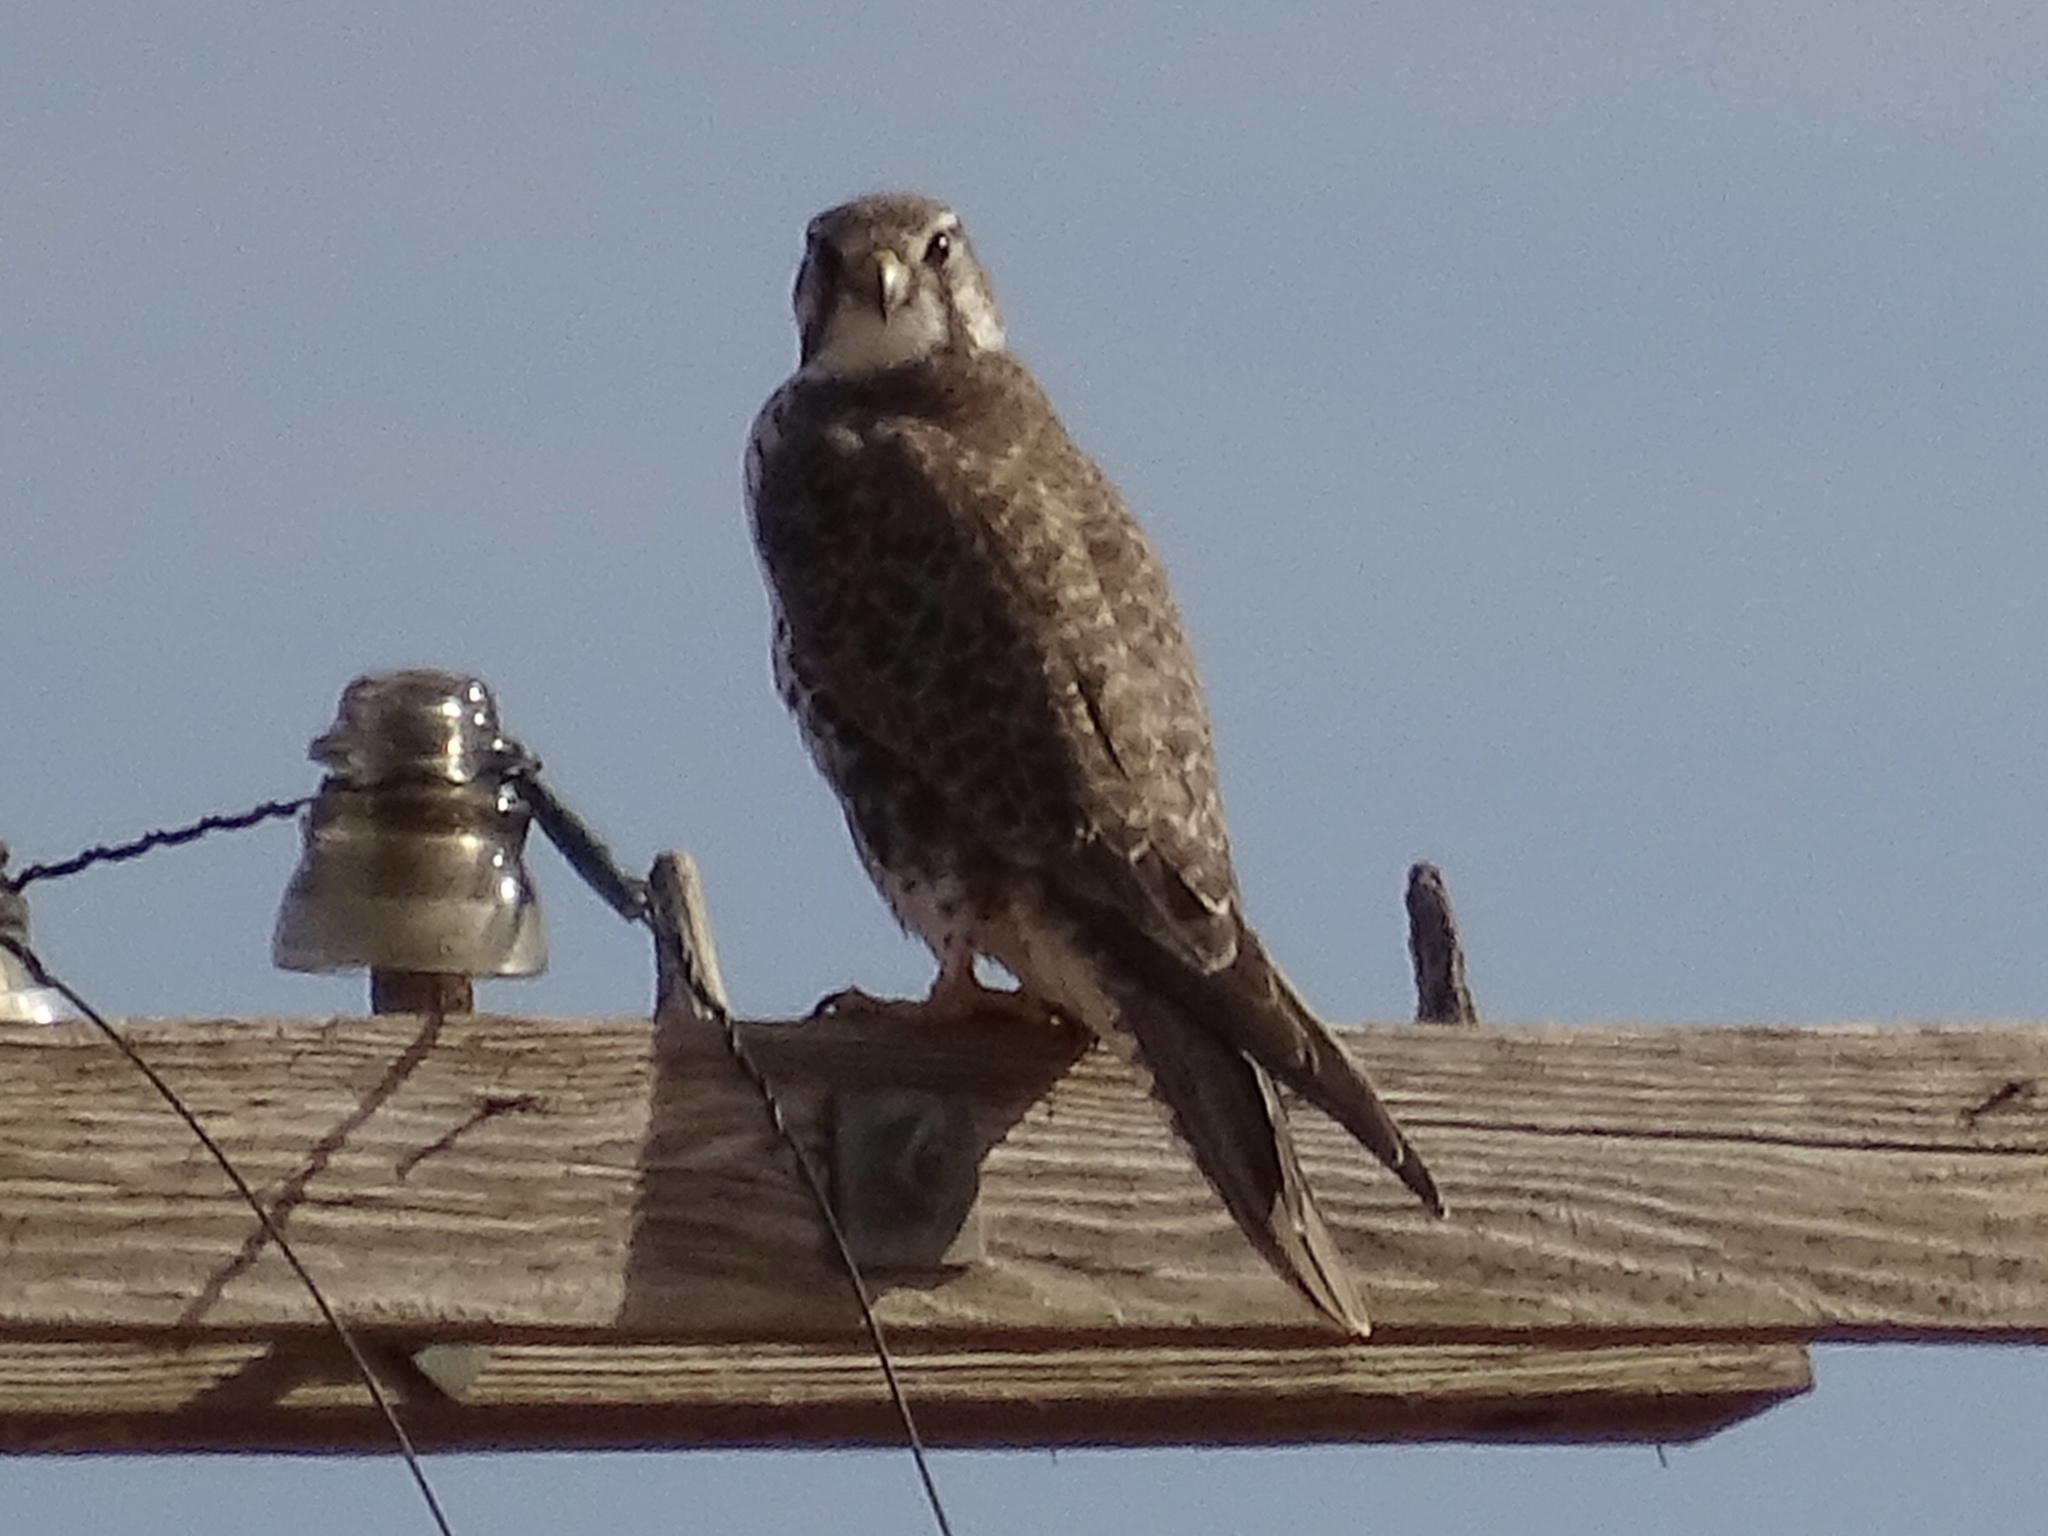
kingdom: Animalia
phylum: Chordata
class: Aves
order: Falconiformes
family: Falconidae
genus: Falco
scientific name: Falco mexicanus
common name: Prairie falcon
